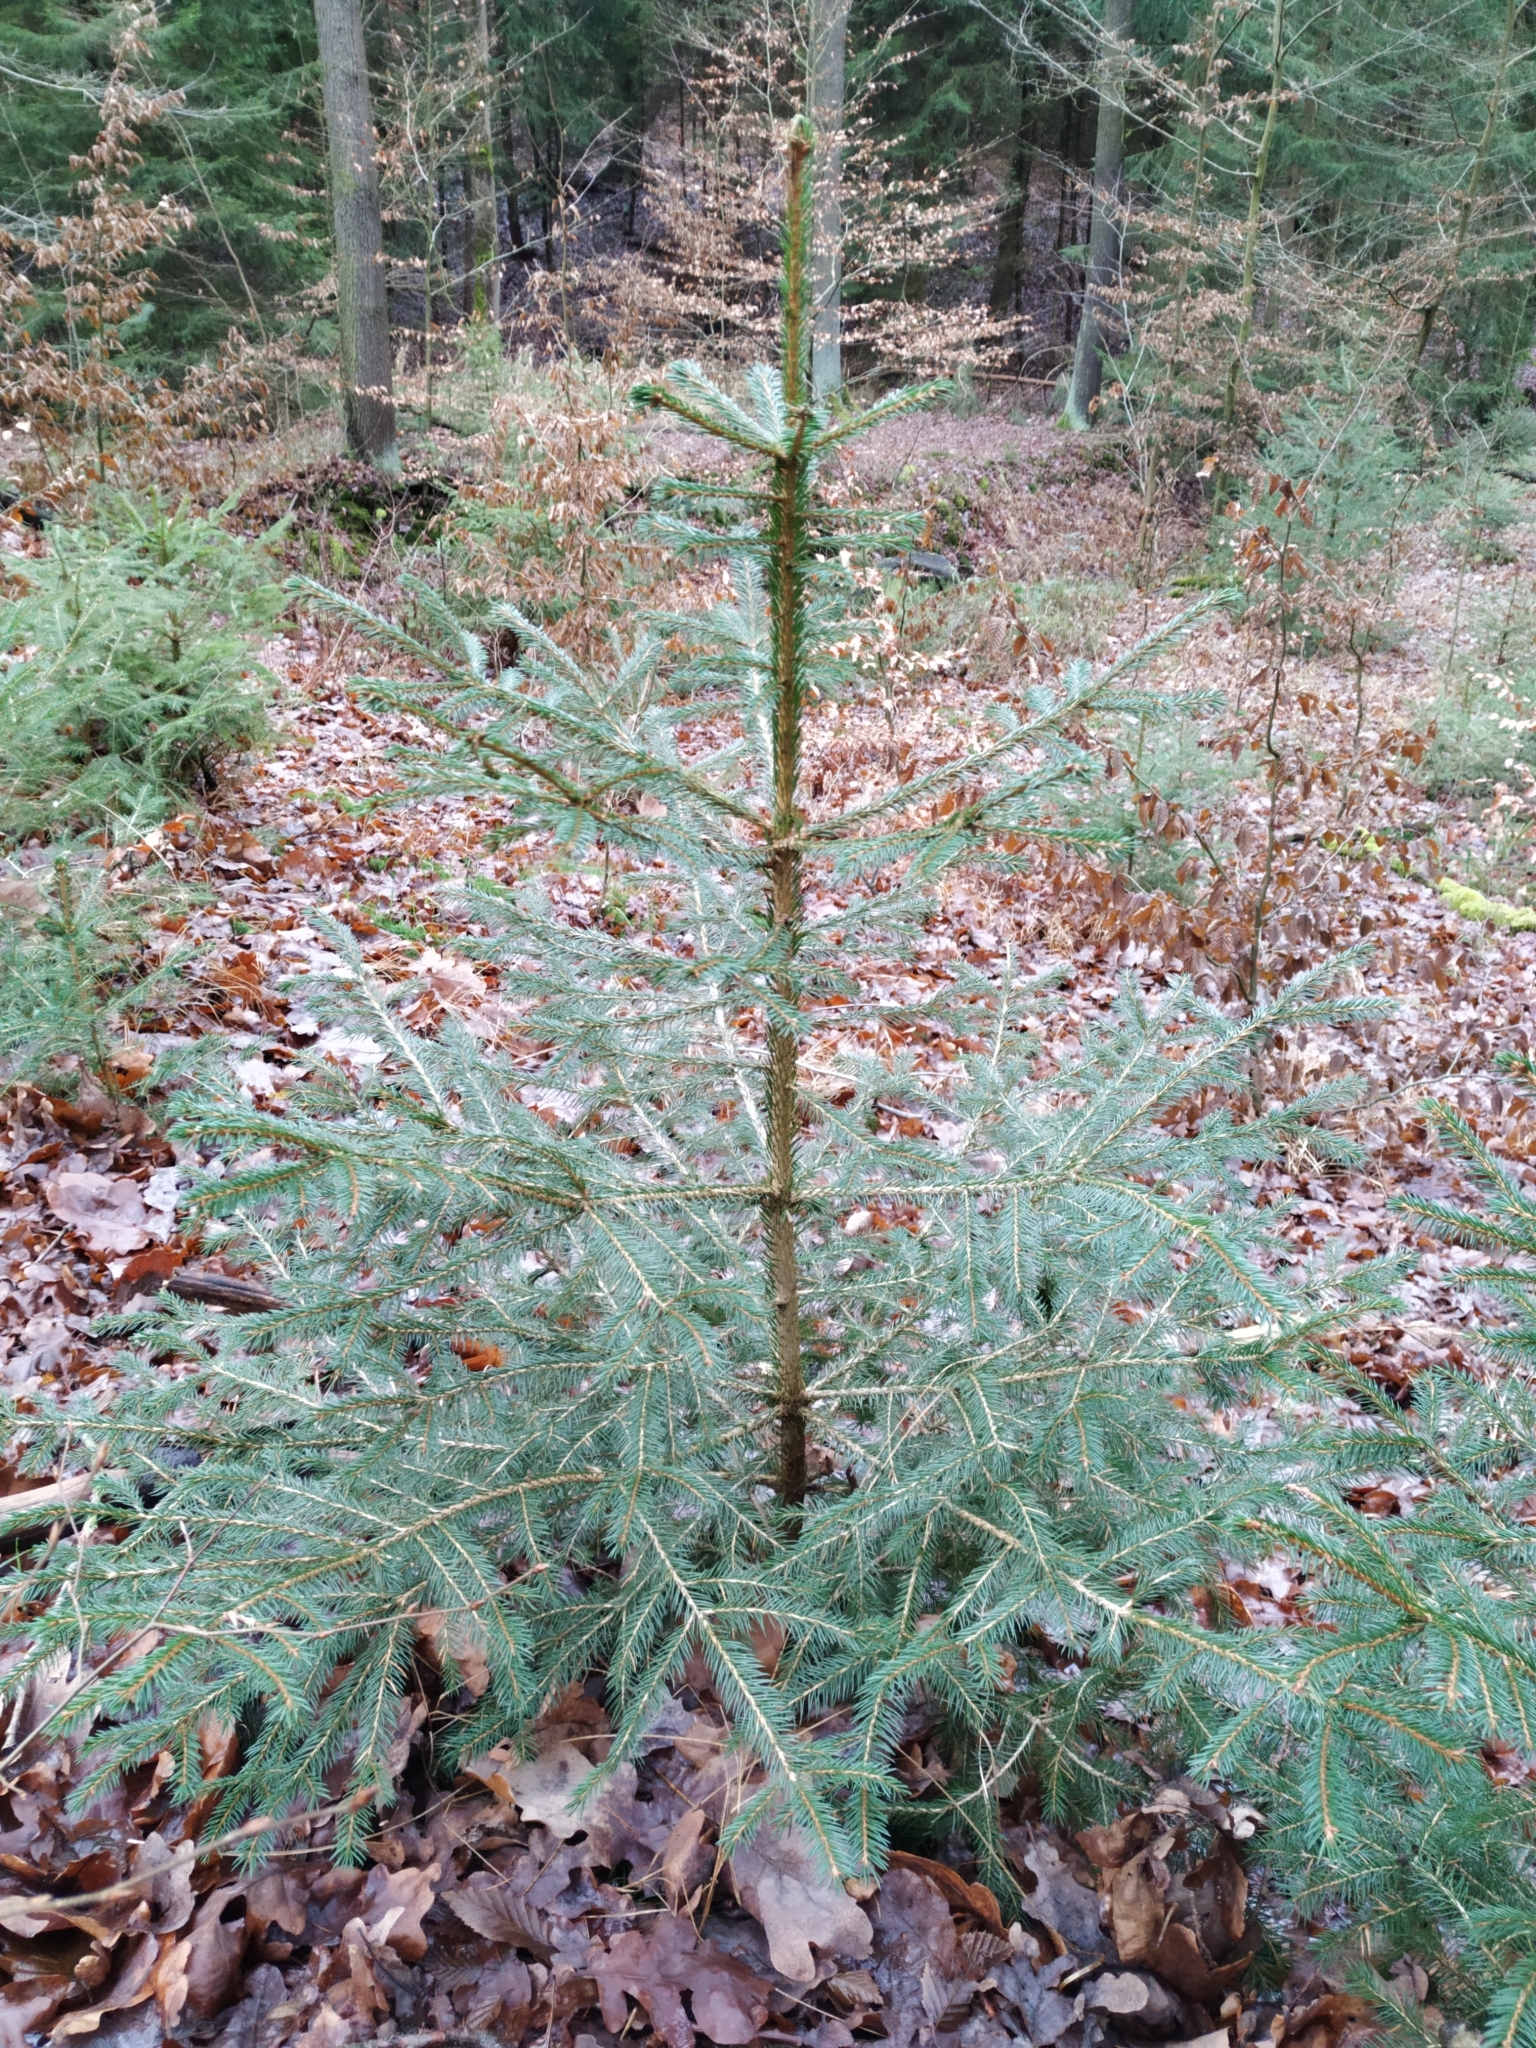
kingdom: Plantae
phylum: Tracheophyta
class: Pinopsida
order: Pinales
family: Pinaceae
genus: Picea
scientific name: Picea abies
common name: Norway spruce
